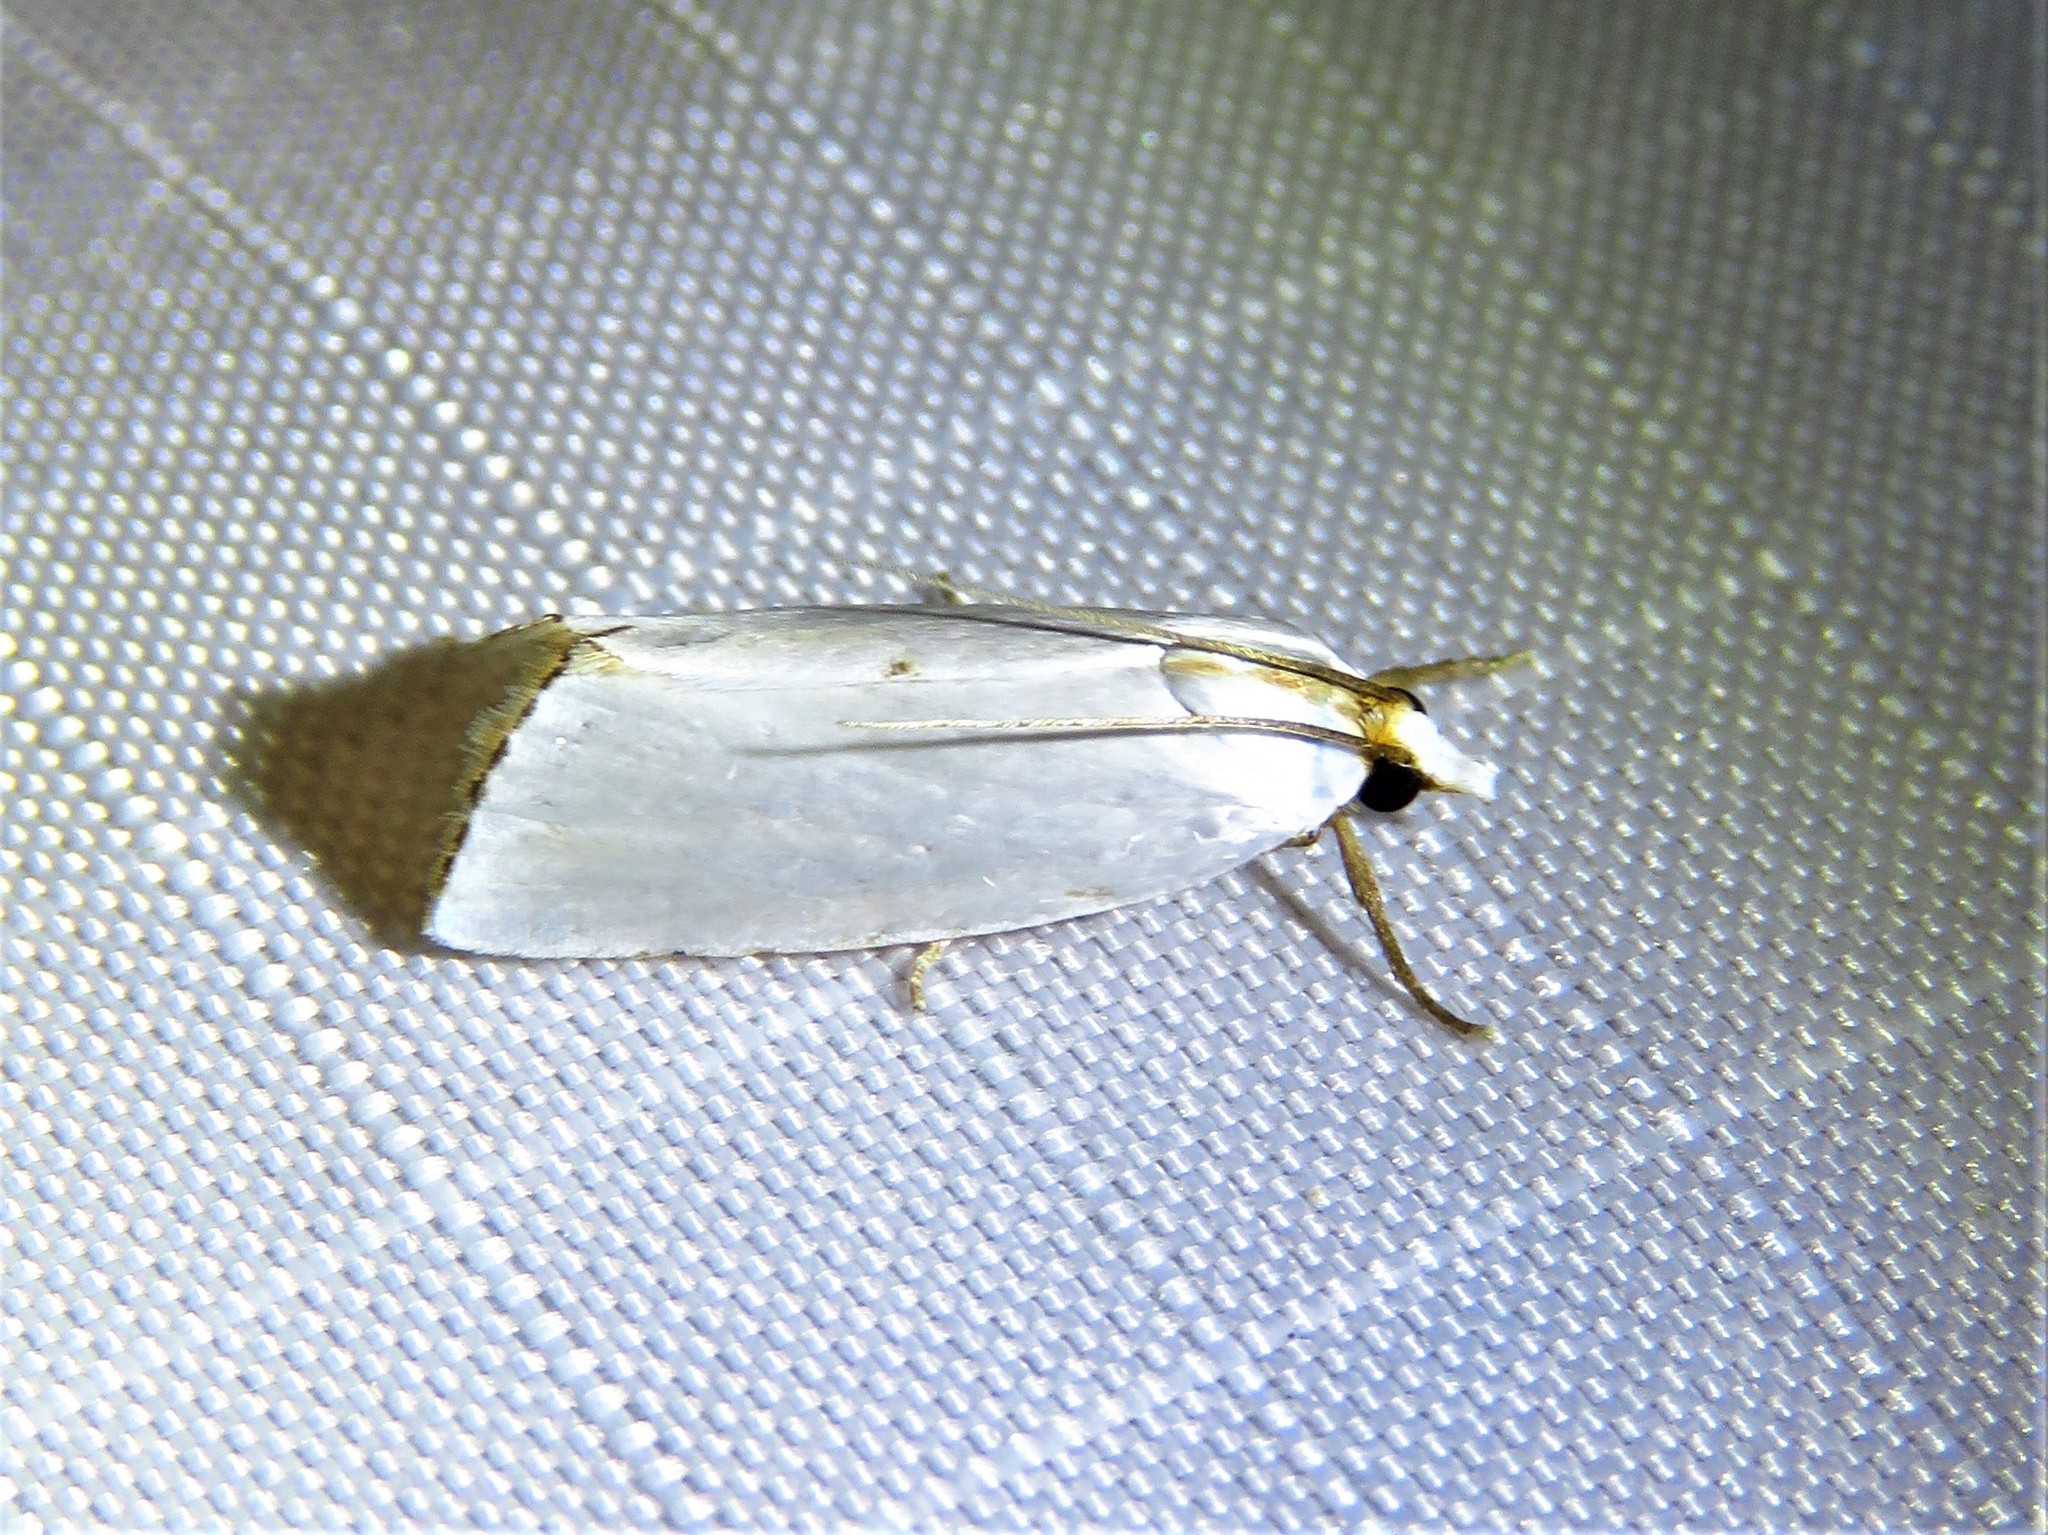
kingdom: Animalia
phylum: Arthropoda
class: Insecta
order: Lepidoptera
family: Crambidae
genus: Argyria
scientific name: Argyria nivalis
